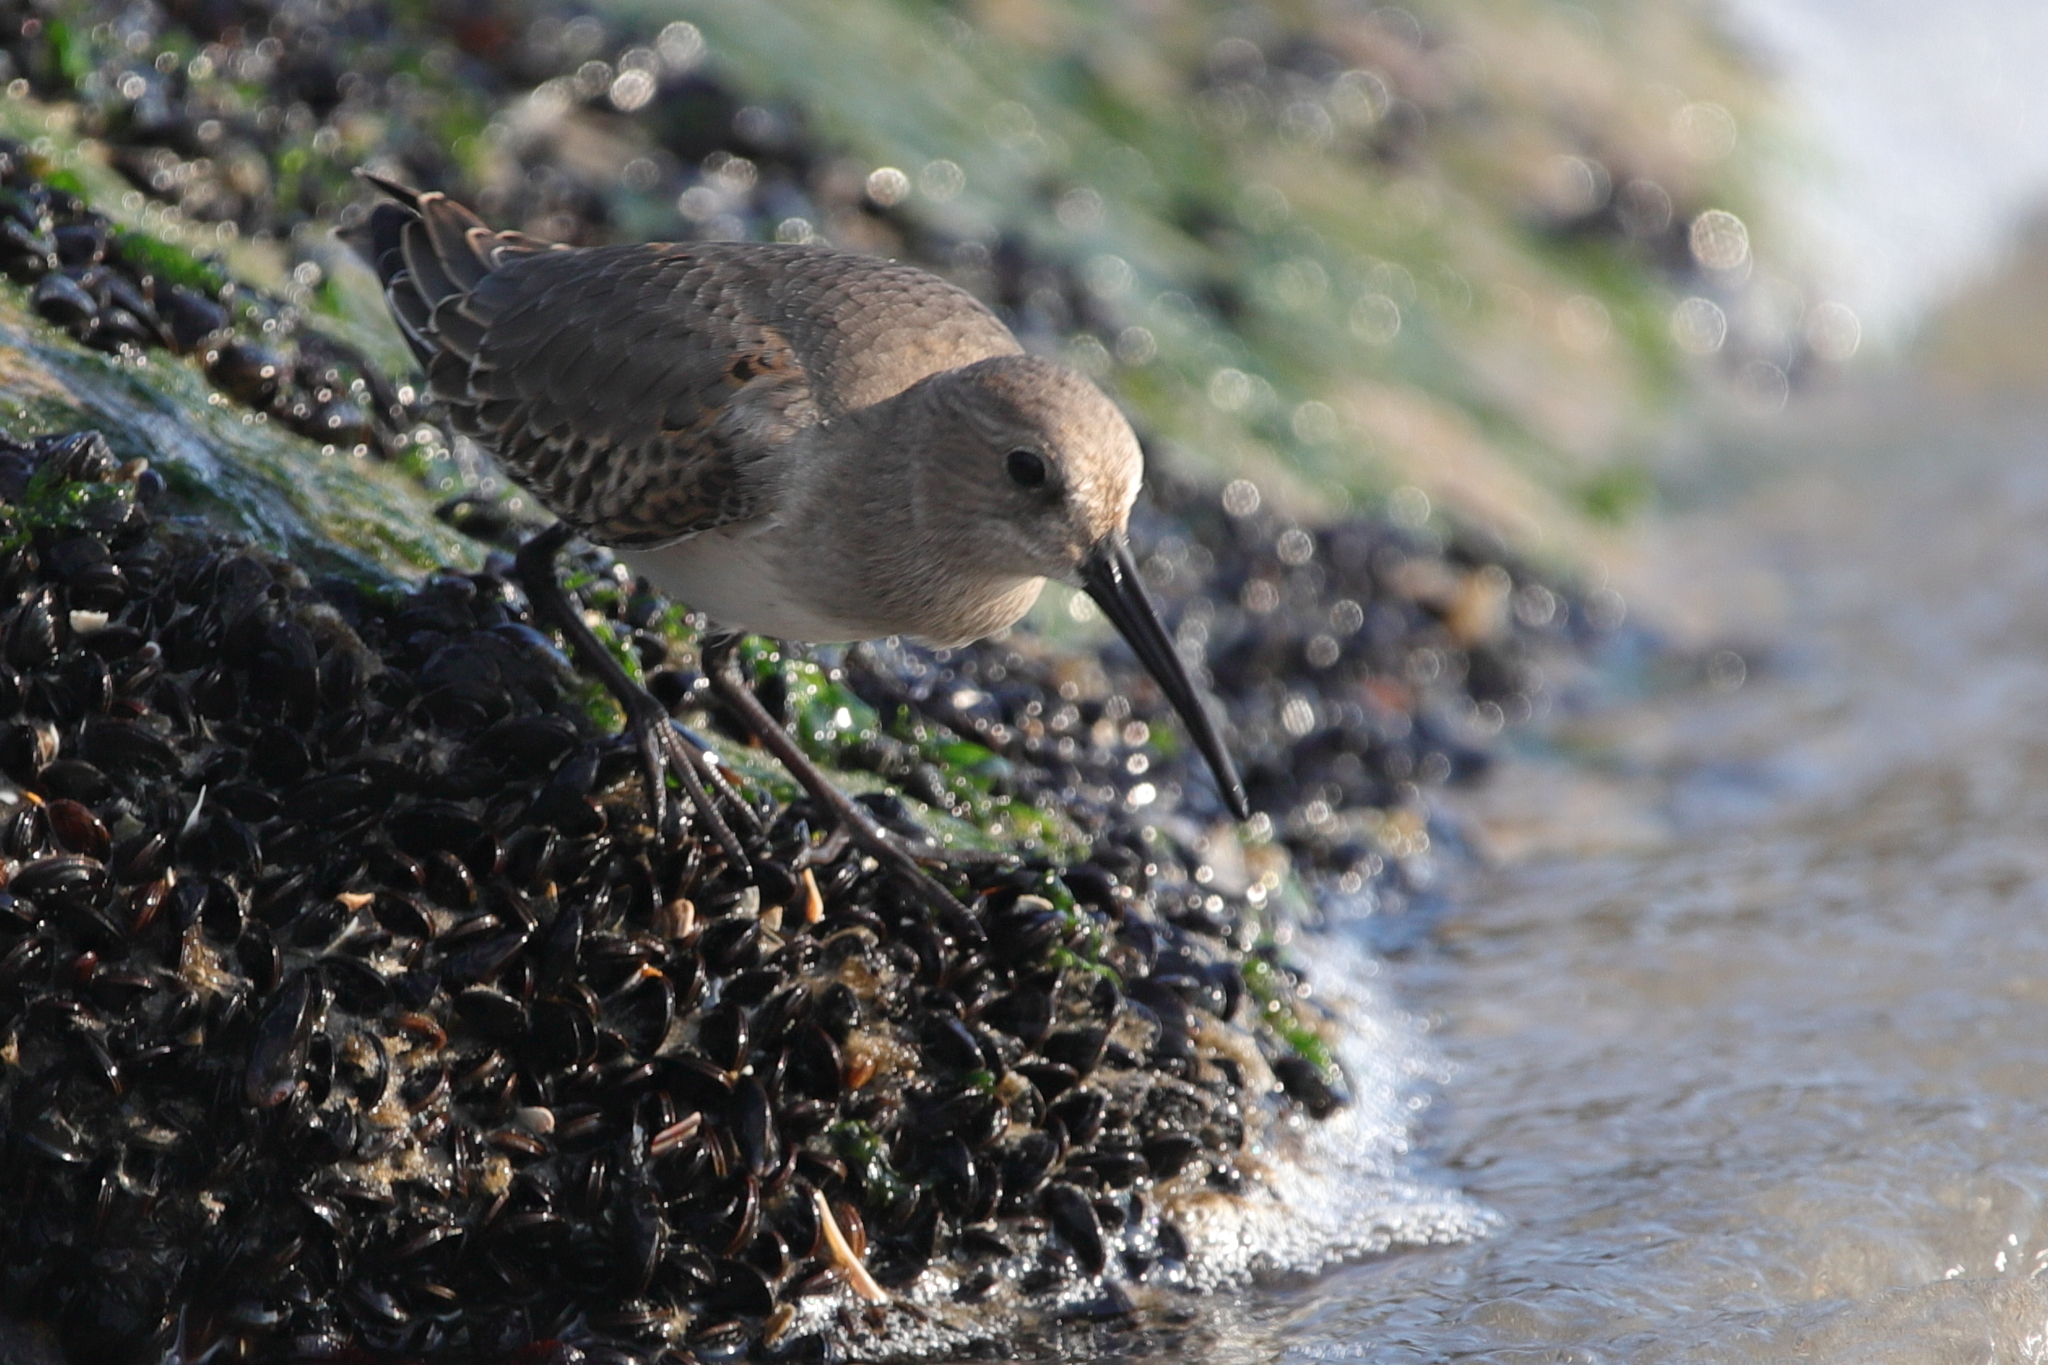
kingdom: Animalia
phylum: Chordata
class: Aves
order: Charadriiformes
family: Scolopacidae
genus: Calidris
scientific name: Calidris alpina
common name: Dunlin
